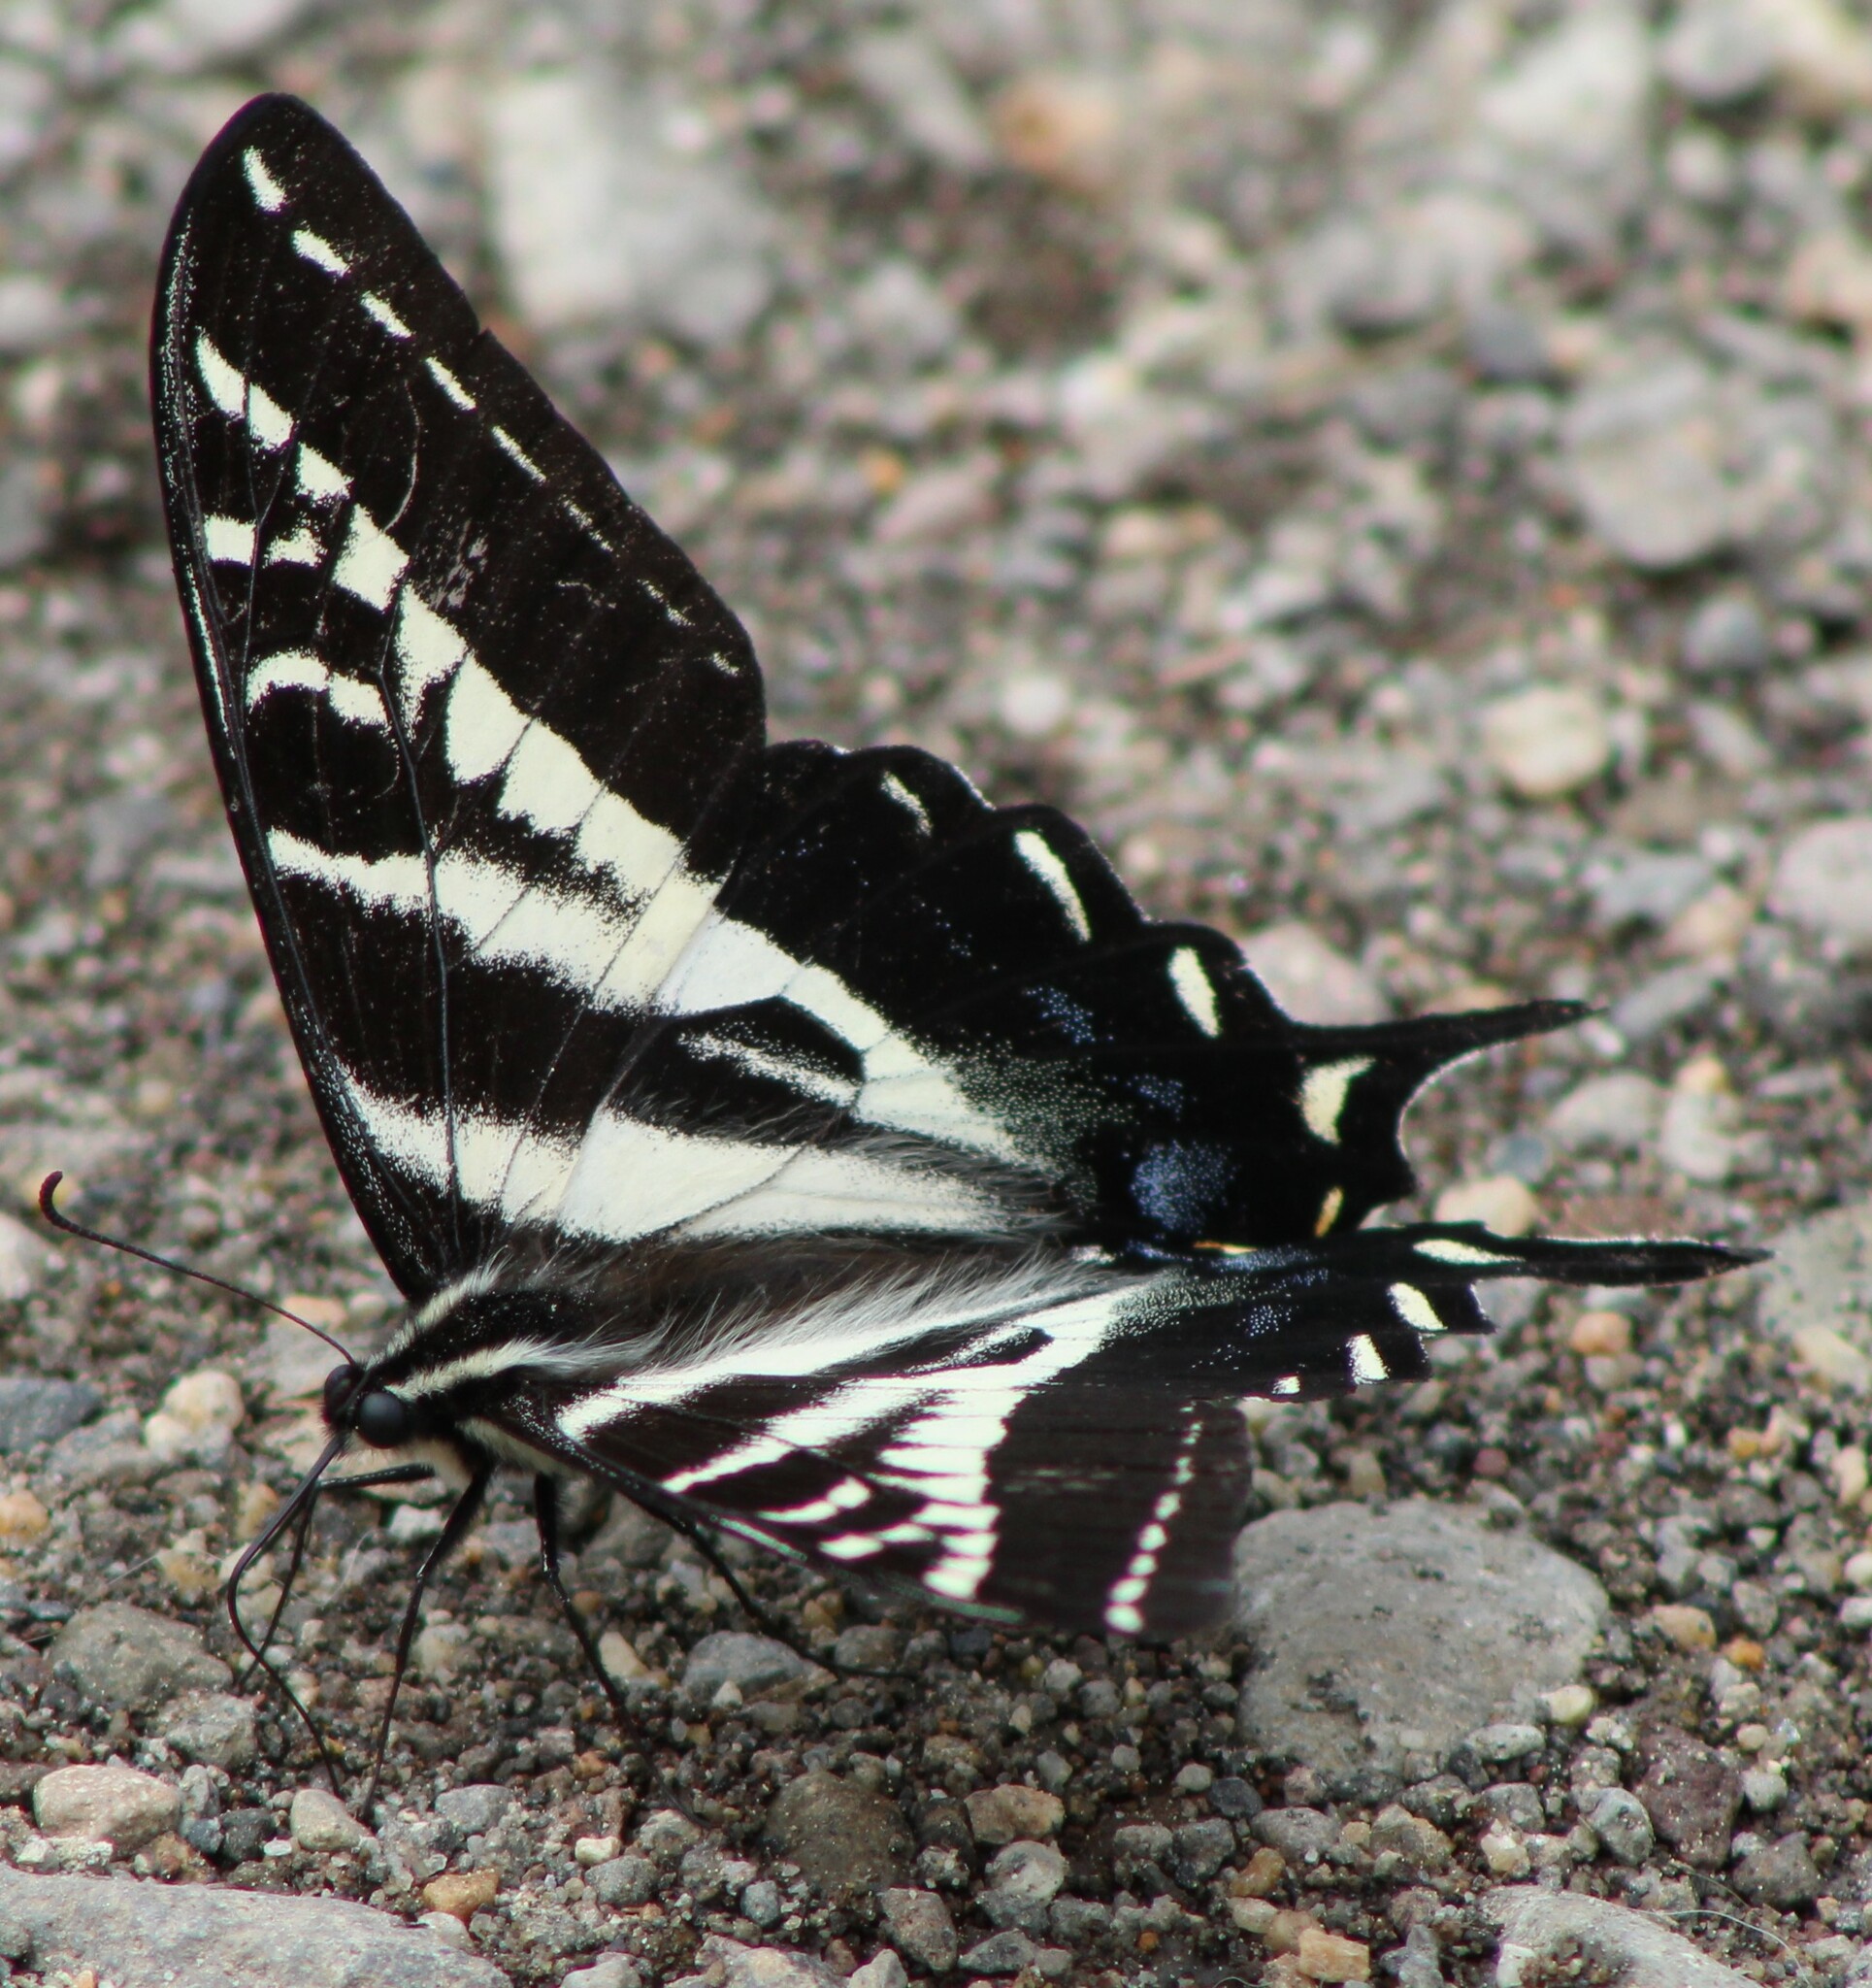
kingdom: Animalia
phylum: Arthropoda
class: Insecta
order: Lepidoptera
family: Papilionidae
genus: Papilio
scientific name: Papilio eurymedon
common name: Pale tiger swallowtail
